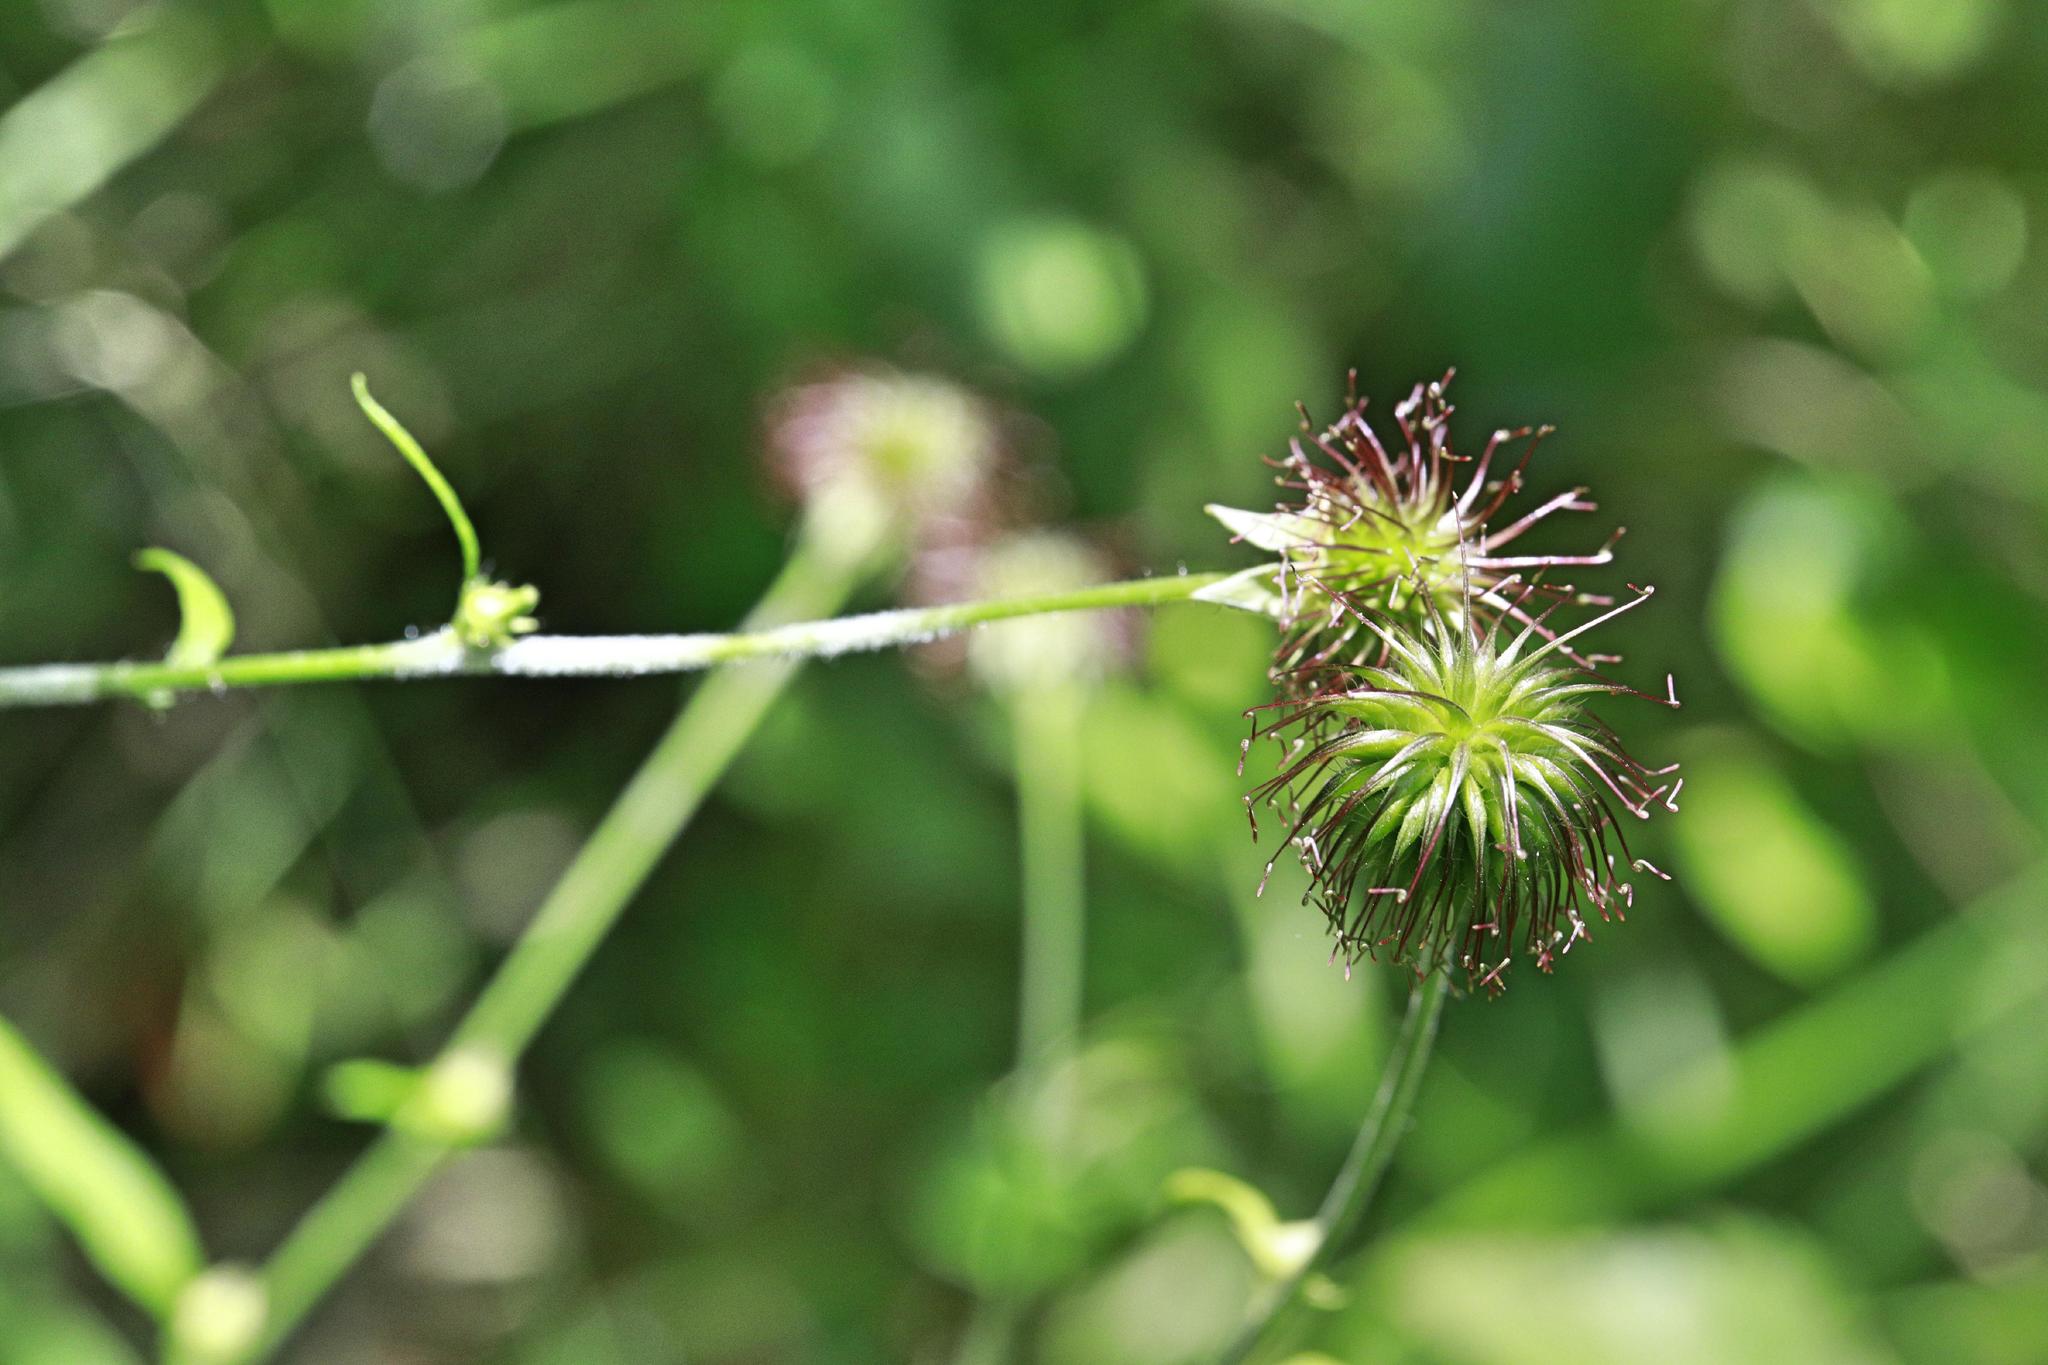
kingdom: Plantae
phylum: Tracheophyta
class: Magnoliopsida
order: Rosales
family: Rosaceae
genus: Geum
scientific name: Geum urbanum
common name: Wood avens
